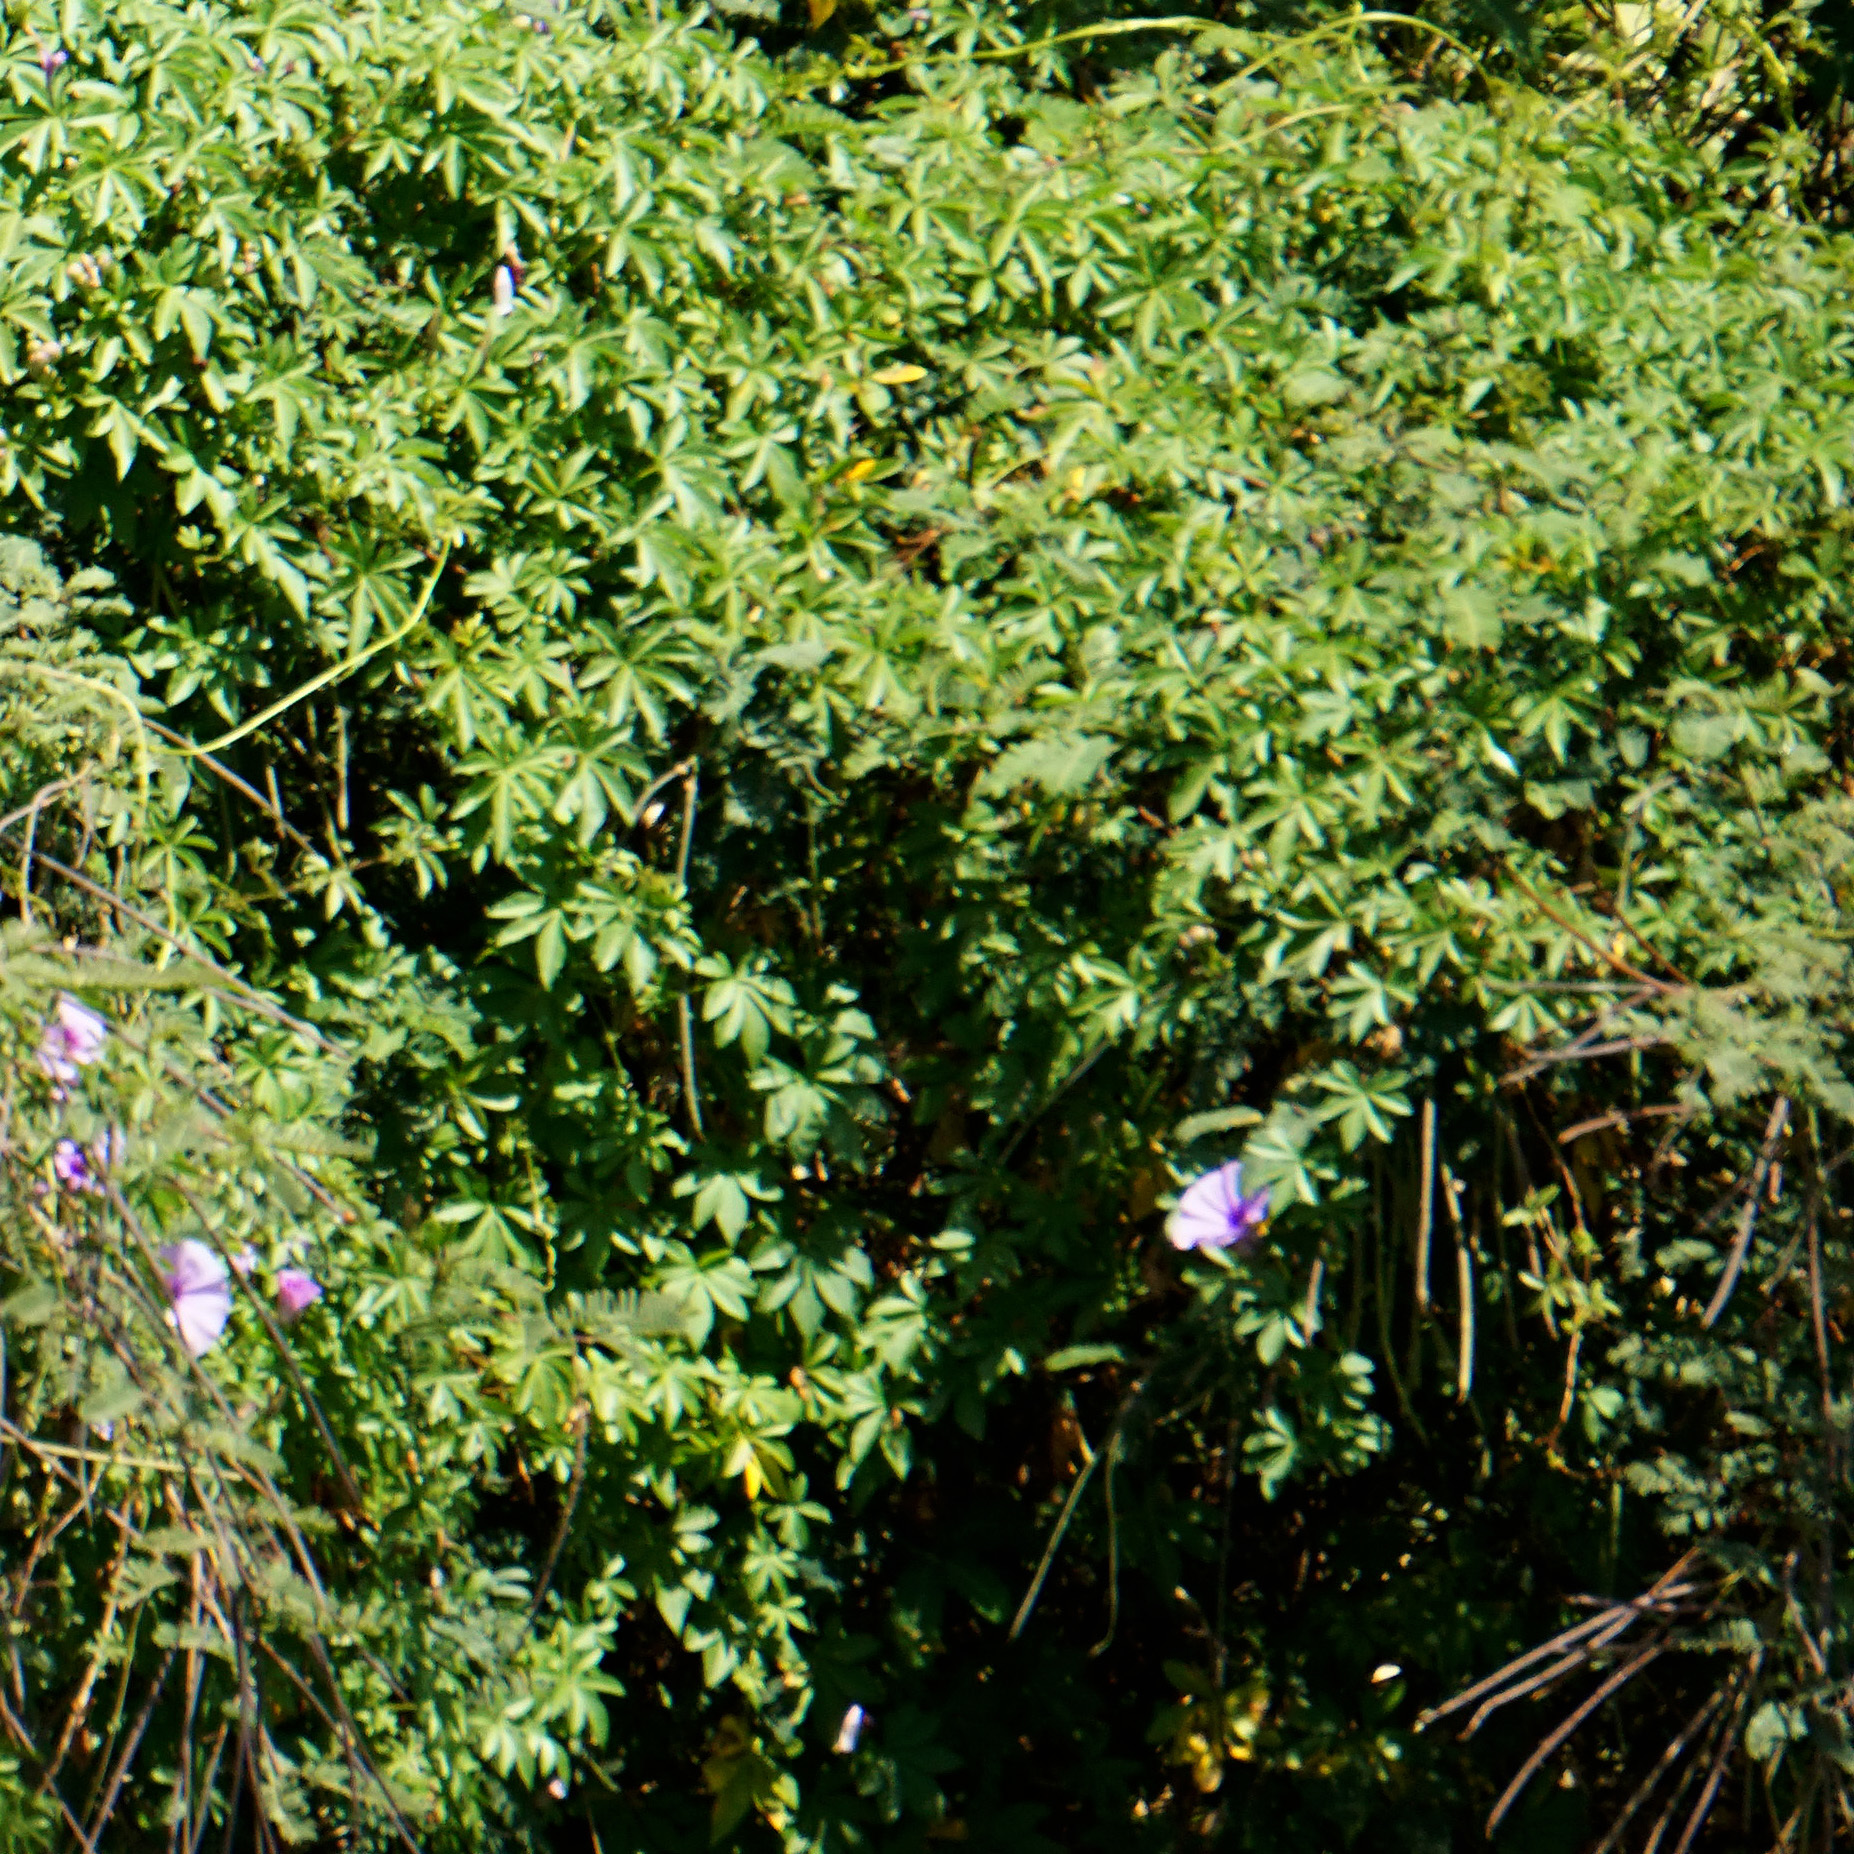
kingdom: Plantae
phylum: Tracheophyta
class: Magnoliopsida
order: Solanales
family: Convolvulaceae
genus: Ipomoea
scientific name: Ipomoea cairica
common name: Mile a minute vine
